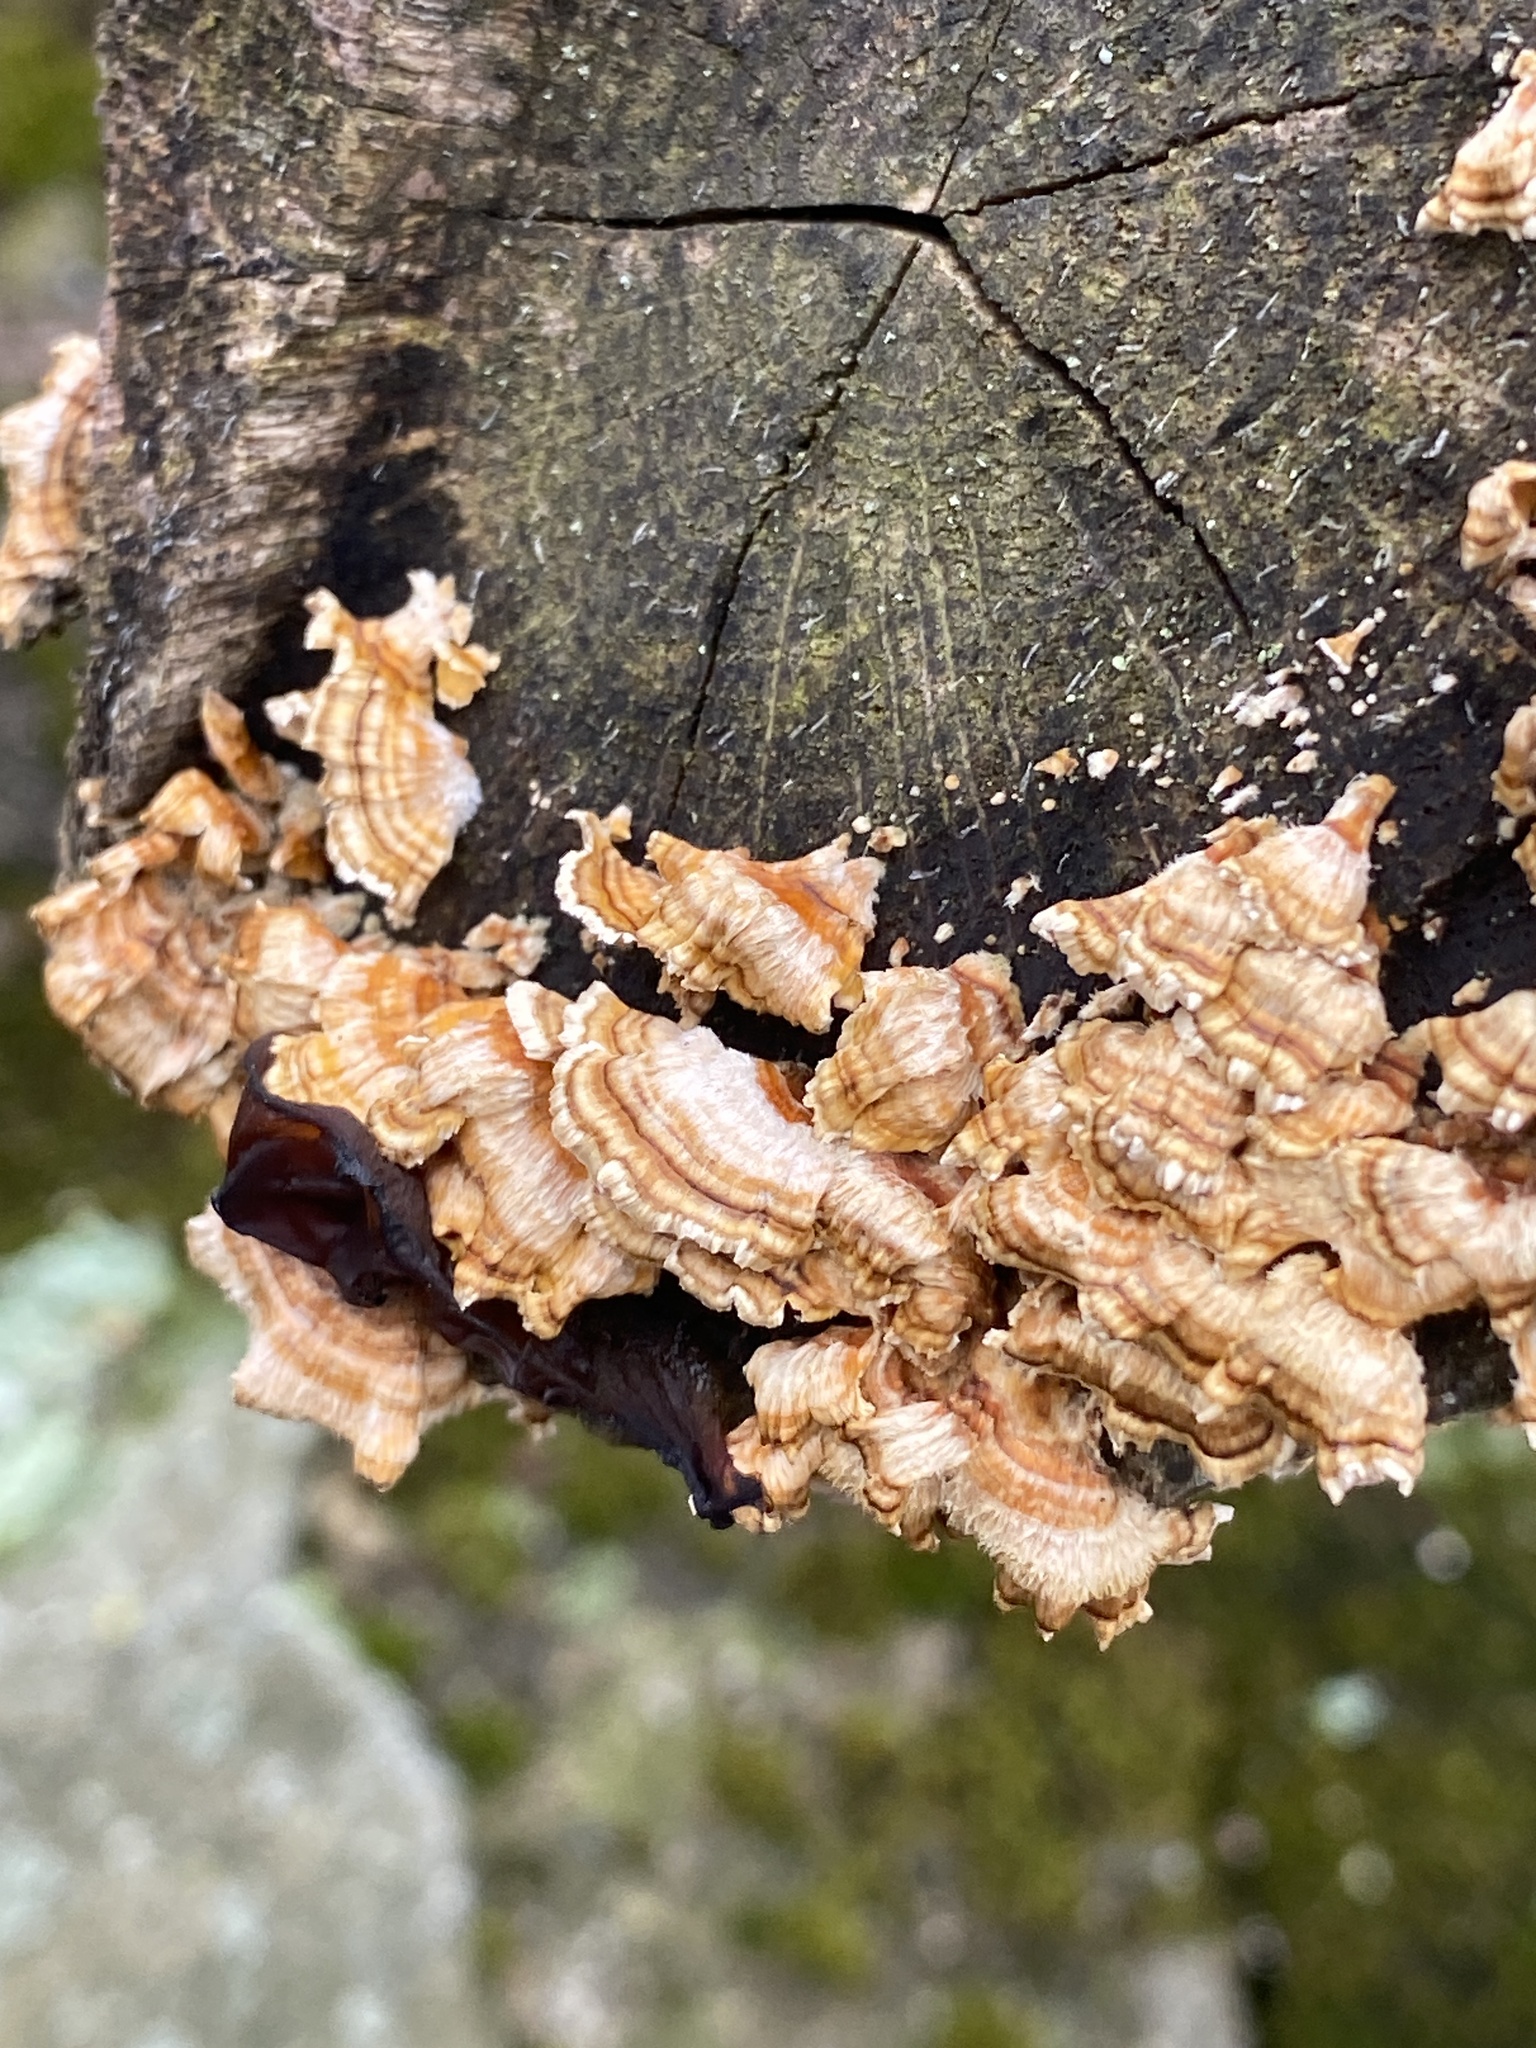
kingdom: Fungi
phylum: Basidiomycota
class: Agaricomycetes
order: Russulales
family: Stereaceae
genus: Stereum
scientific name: Stereum complicatum
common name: Crowded parchment
